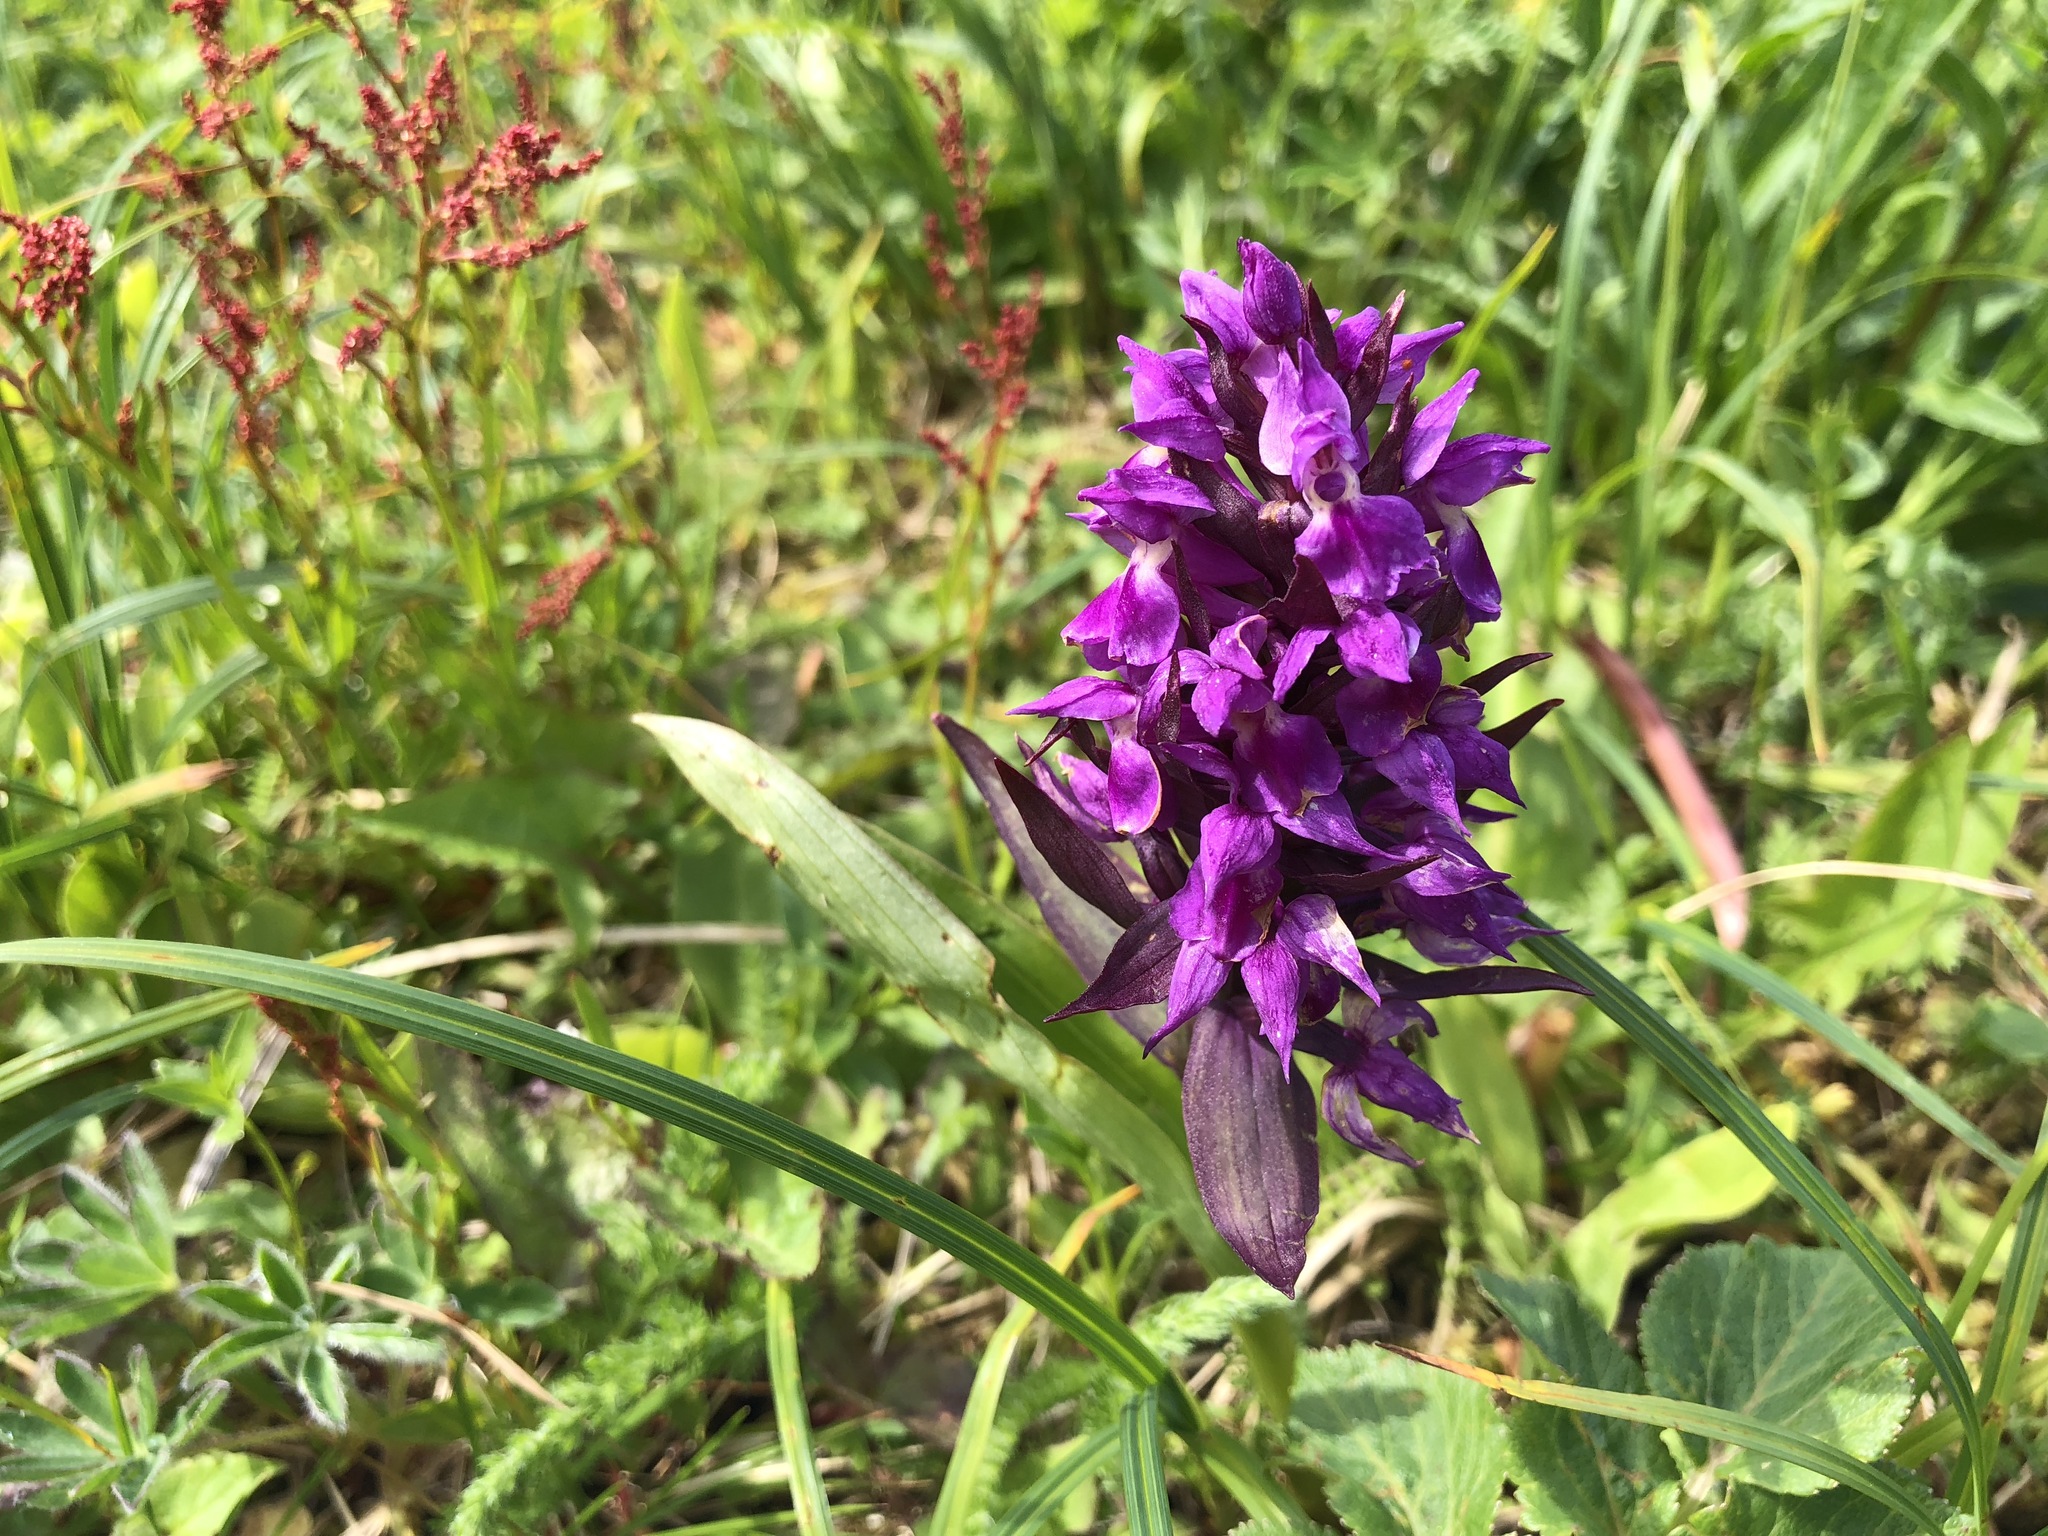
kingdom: Plantae
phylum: Tracheophyta
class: Liliopsida
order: Asparagales
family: Orchidaceae
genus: Dactylorhiza
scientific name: Dactylorhiza aristata
